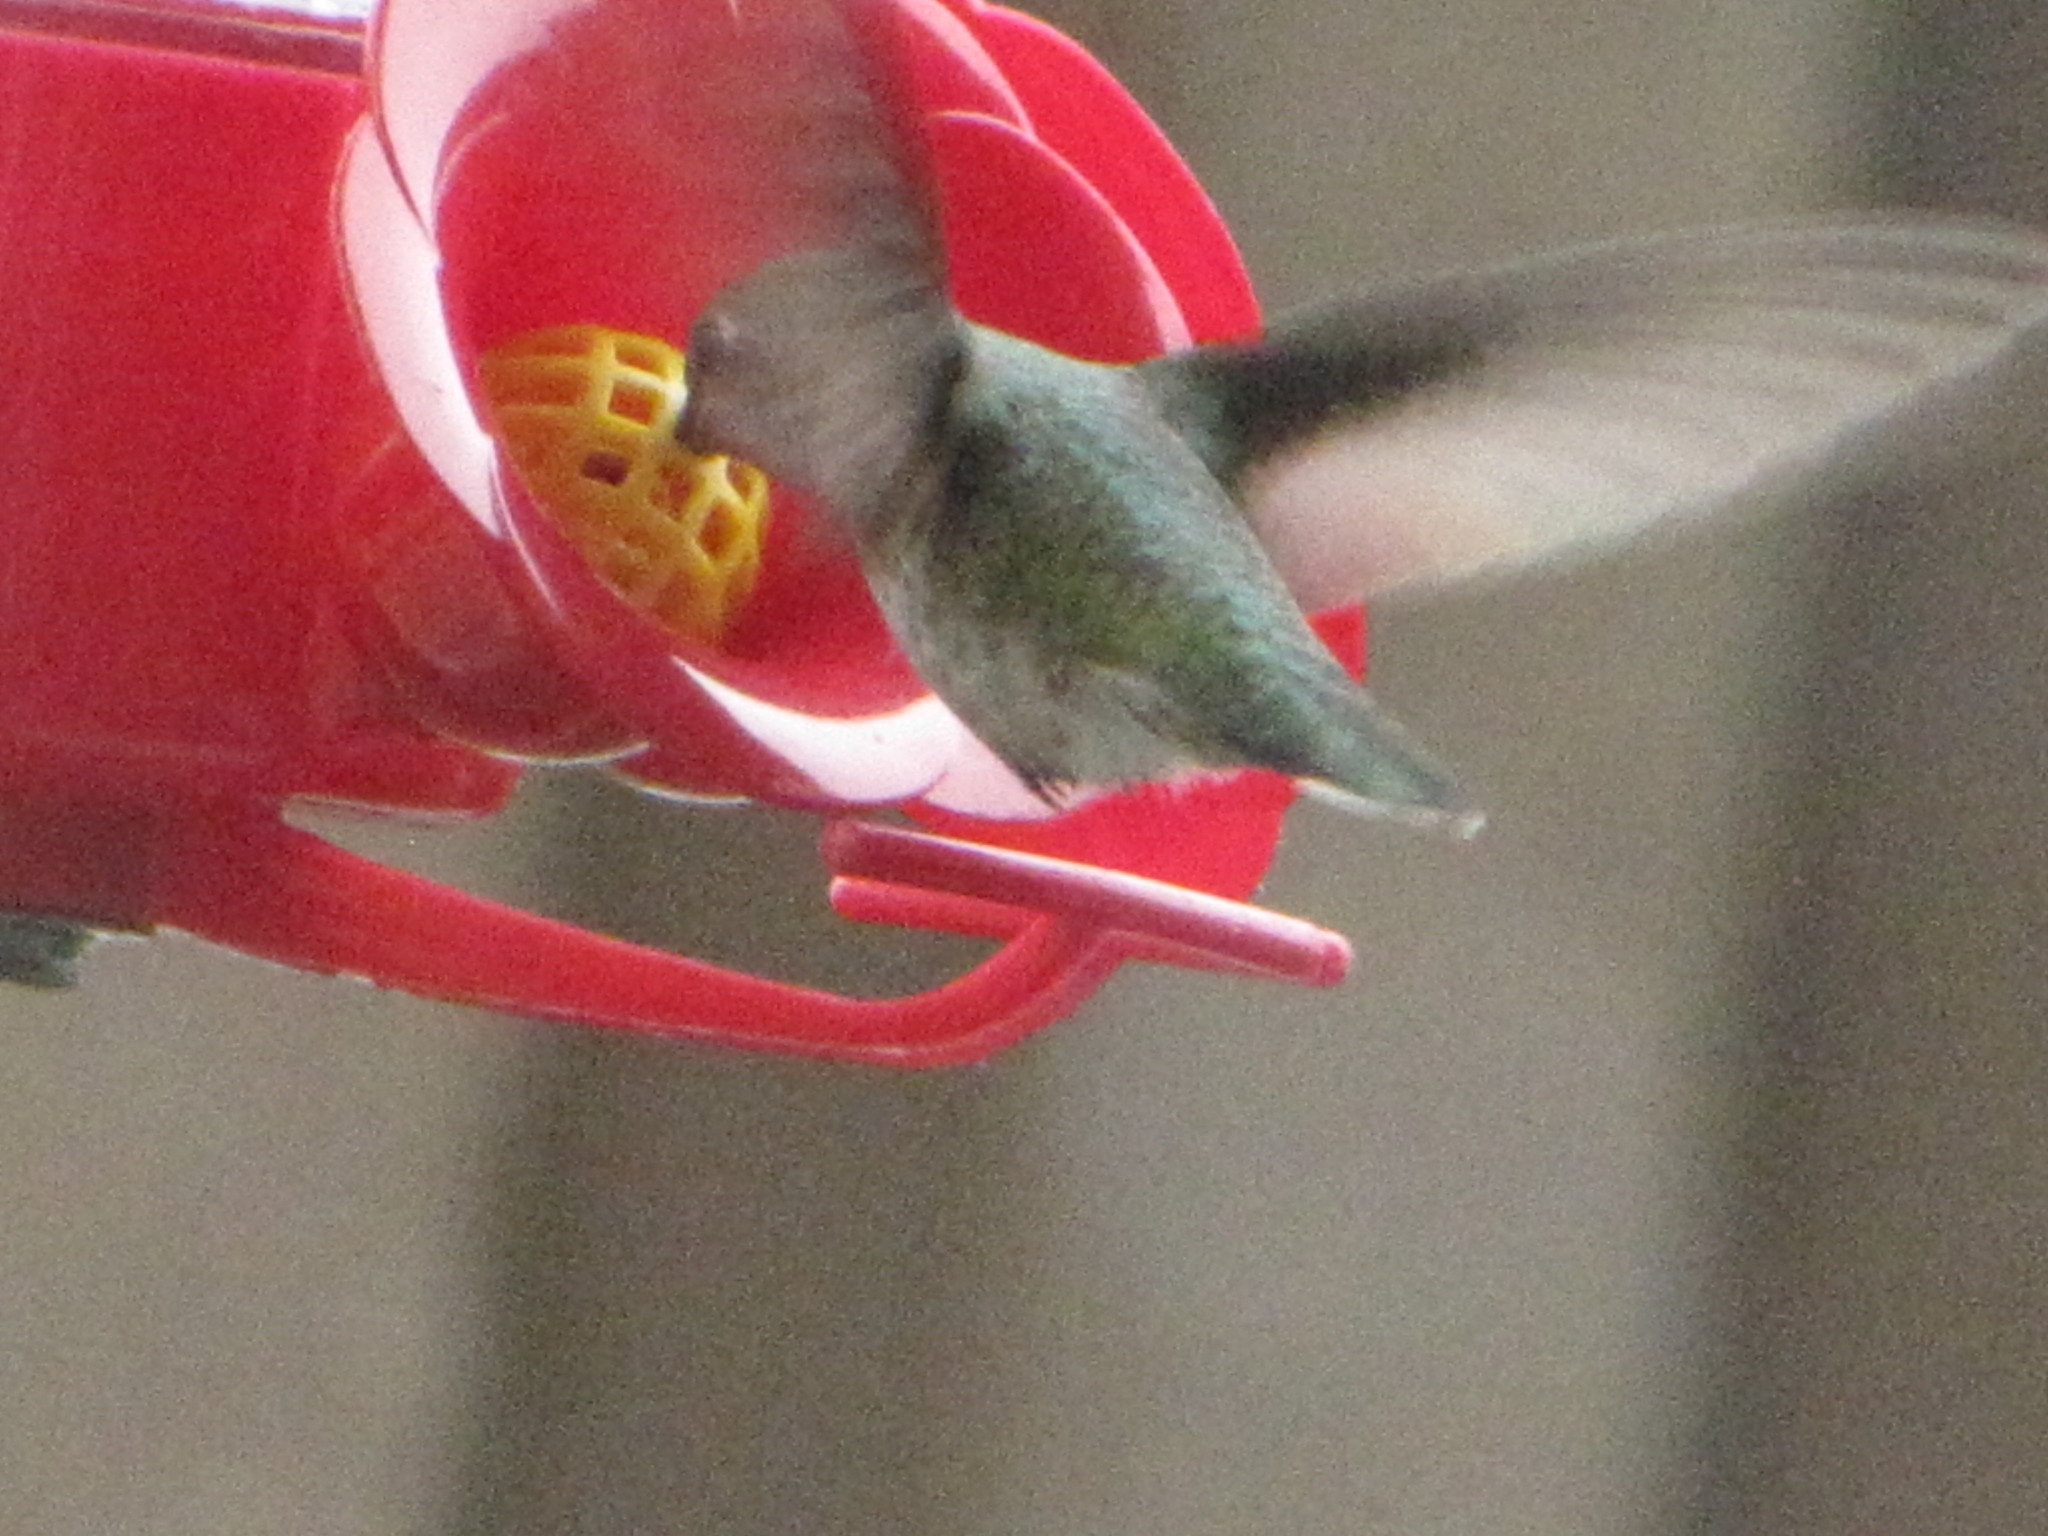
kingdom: Animalia
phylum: Chordata
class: Aves
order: Apodiformes
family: Trochilidae
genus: Calypte
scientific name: Calypte anna
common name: Anna's hummingbird
